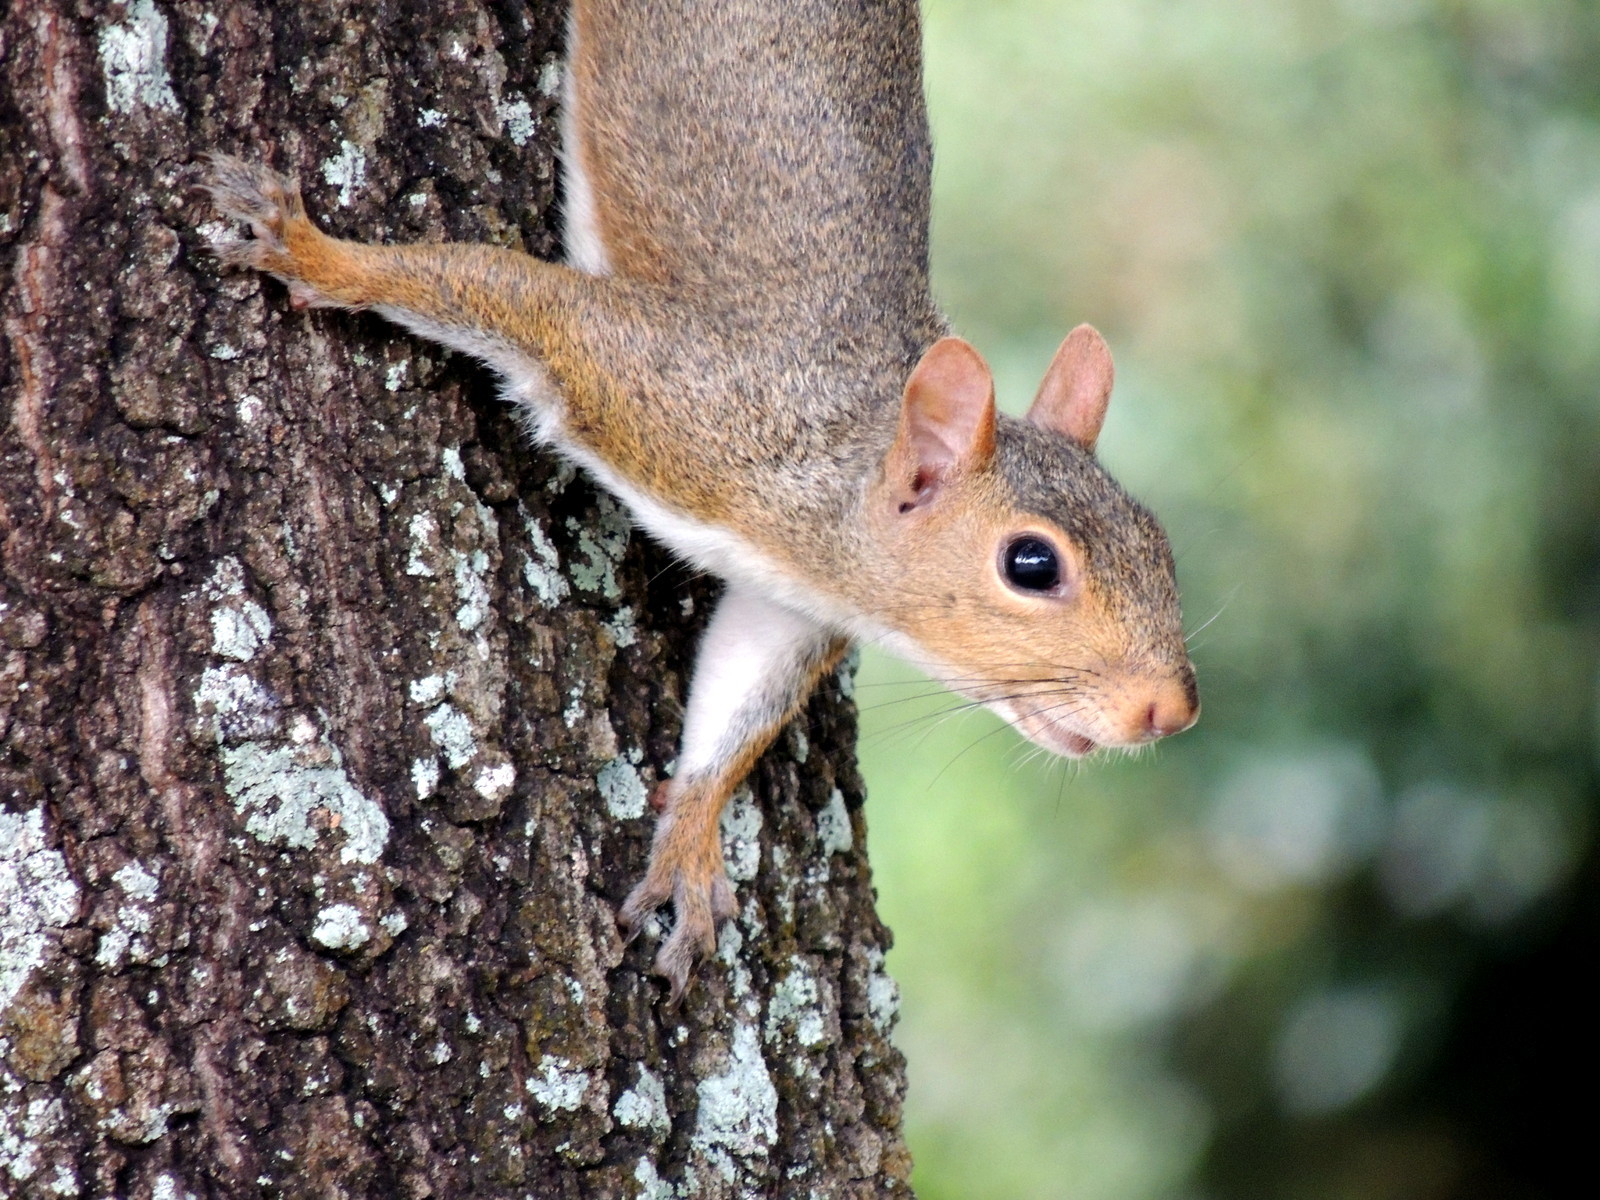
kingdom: Animalia
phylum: Chordata
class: Mammalia
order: Rodentia
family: Sciuridae
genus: Sciurus
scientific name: Sciurus carolinensis
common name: Eastern gray squirrel
